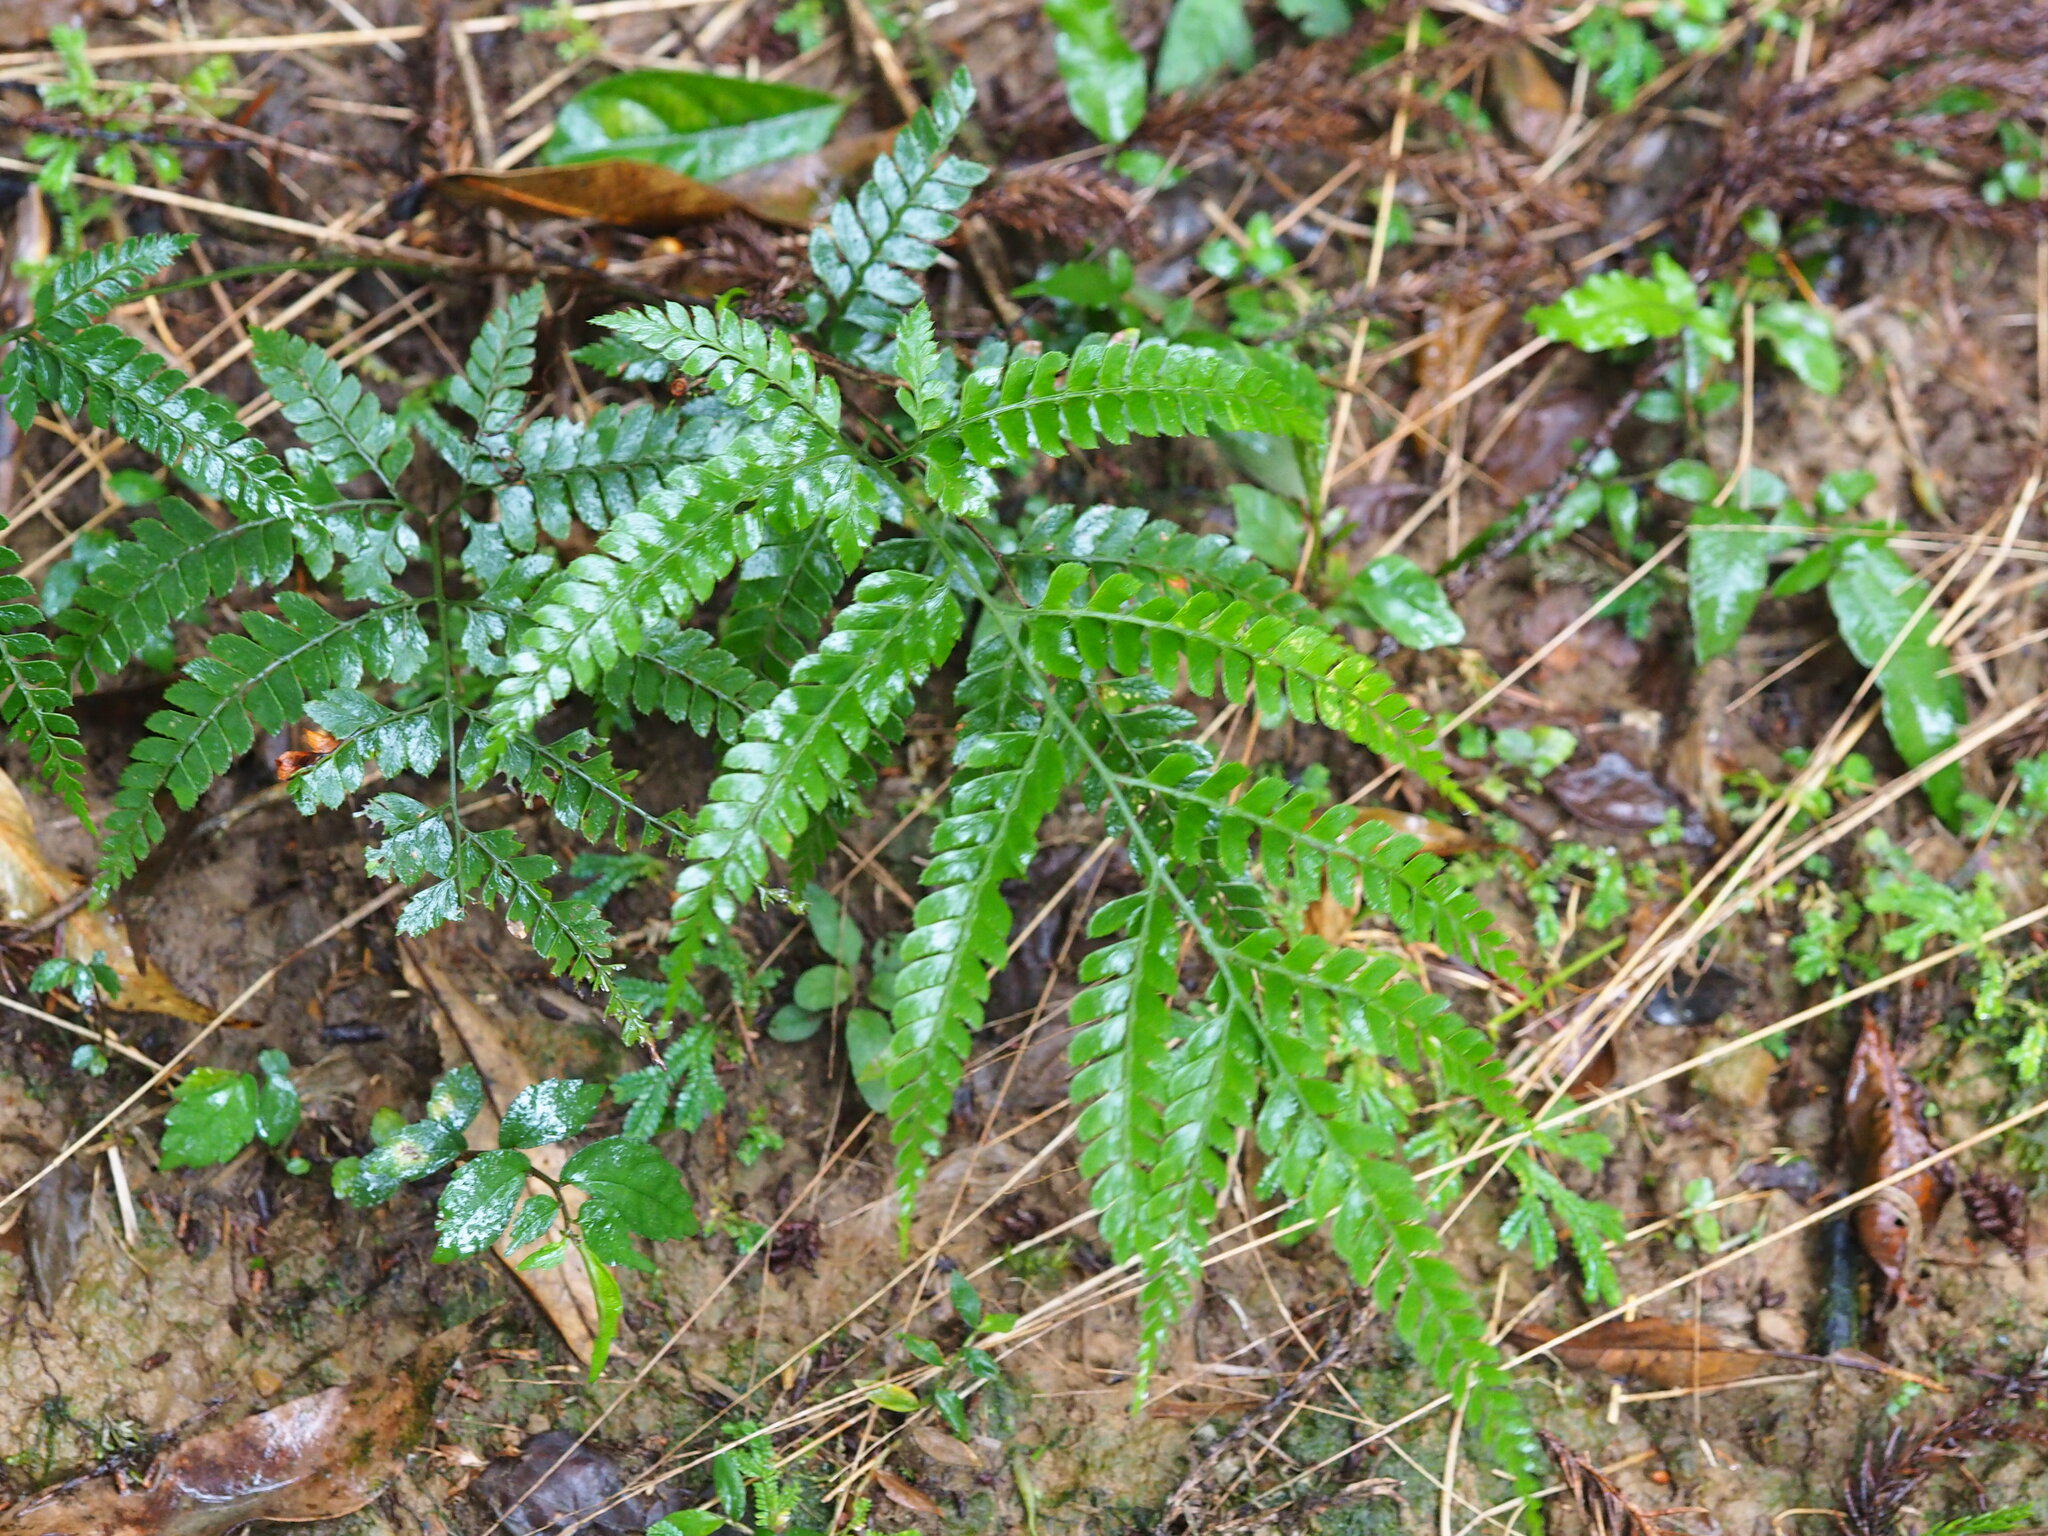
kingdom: Plantae
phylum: Tracheophyta
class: Polypodiopsida
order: Polypodiales
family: Dryopteridaceae
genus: Arachniodes
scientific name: Arachniodes rhomboidea
